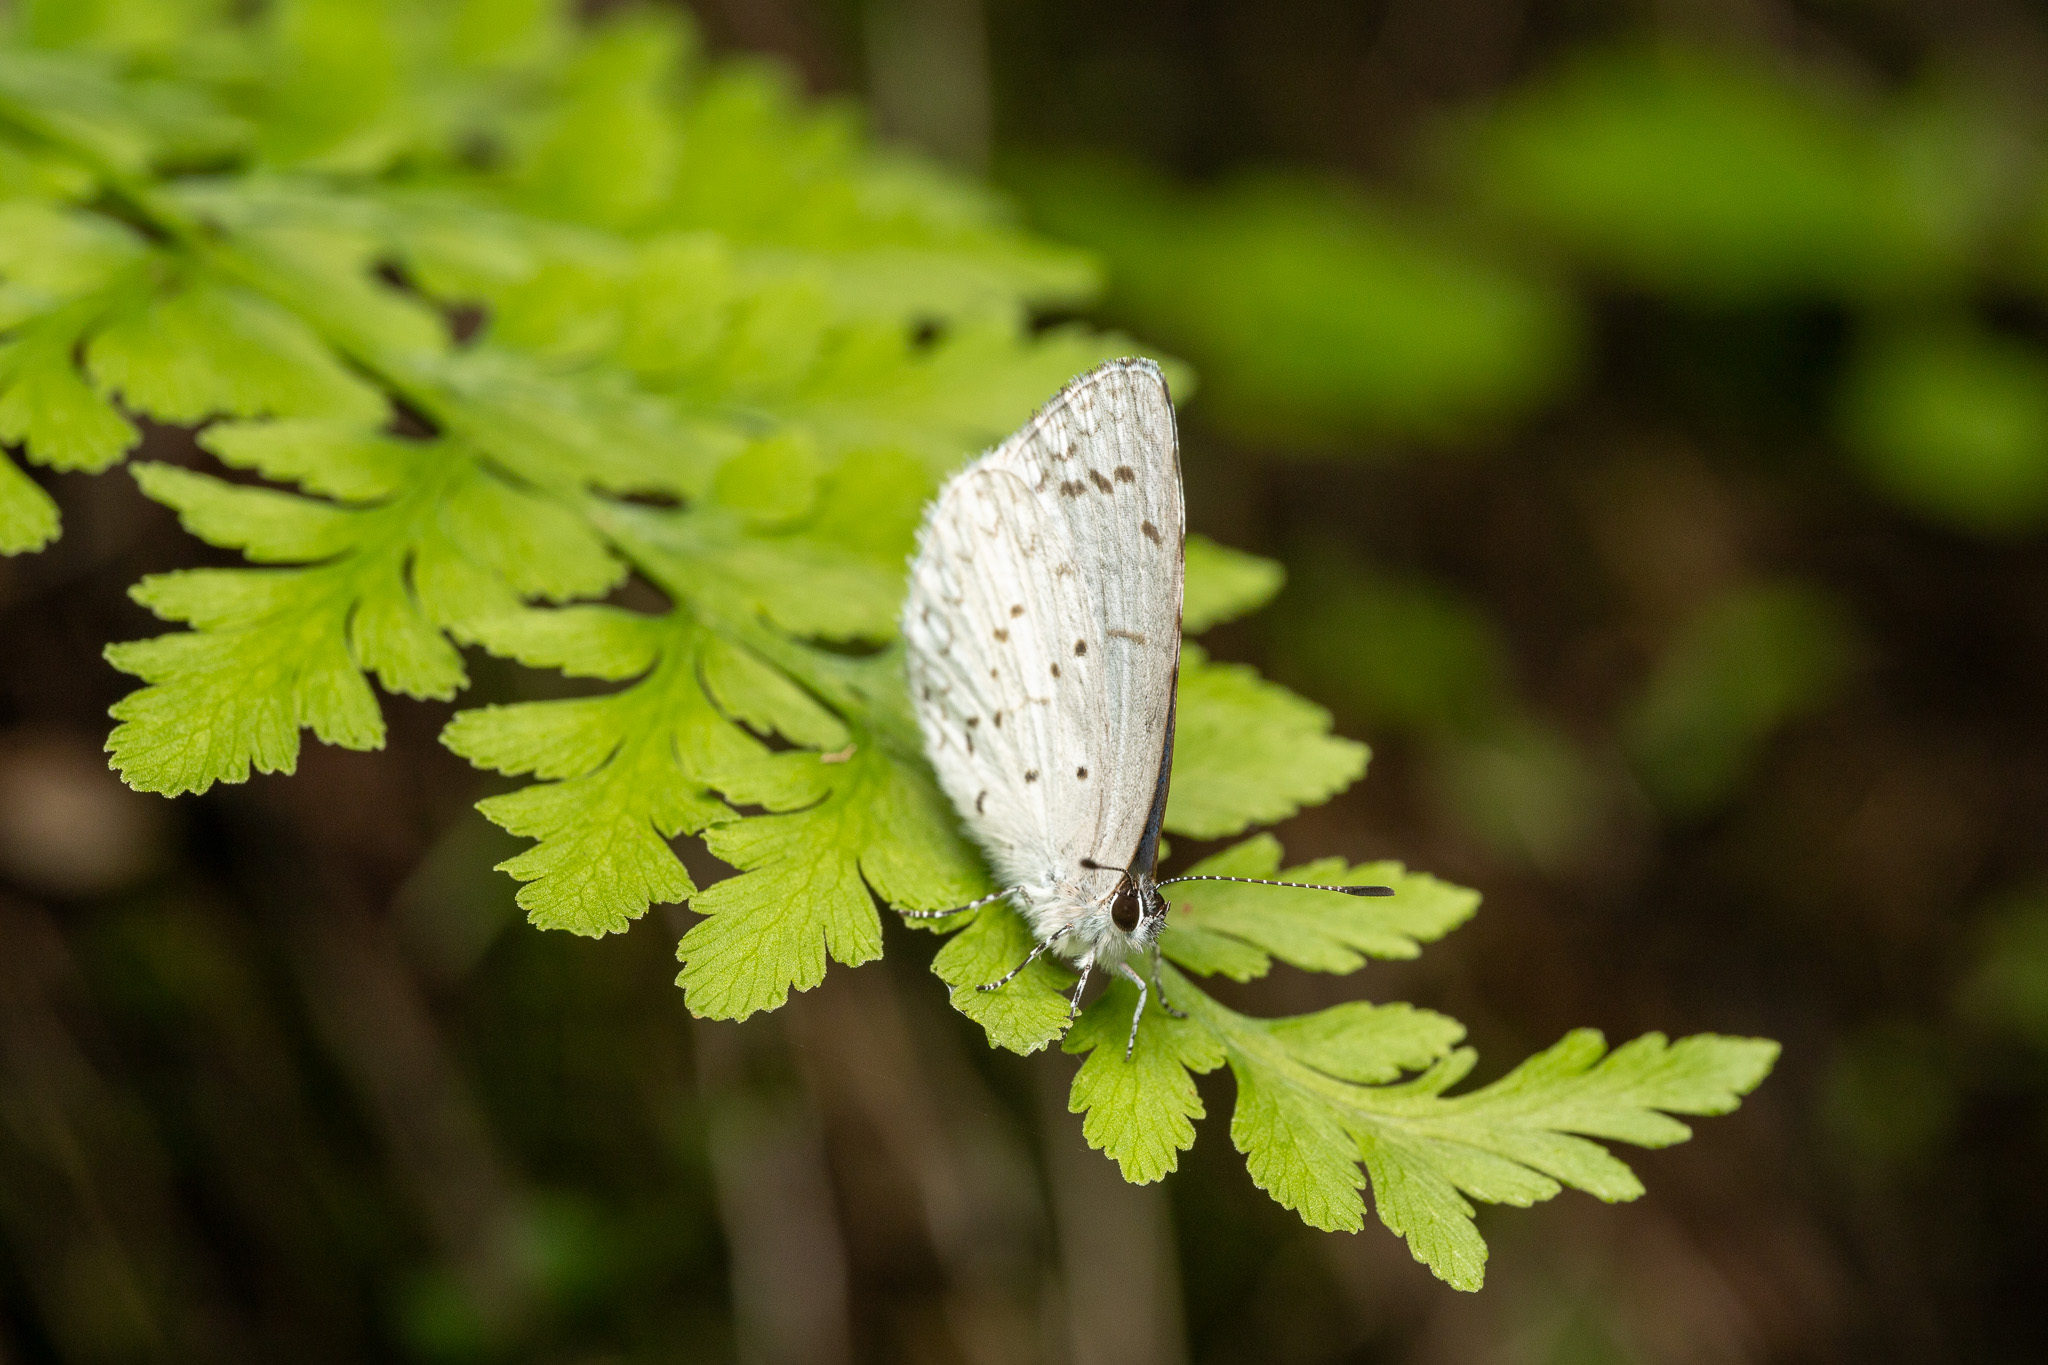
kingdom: Animalia
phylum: Arthropoda
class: Insecta
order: Lepidoptera
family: Lycaenidae
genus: Celastrina
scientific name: Celastrina ladon
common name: Spring azure
